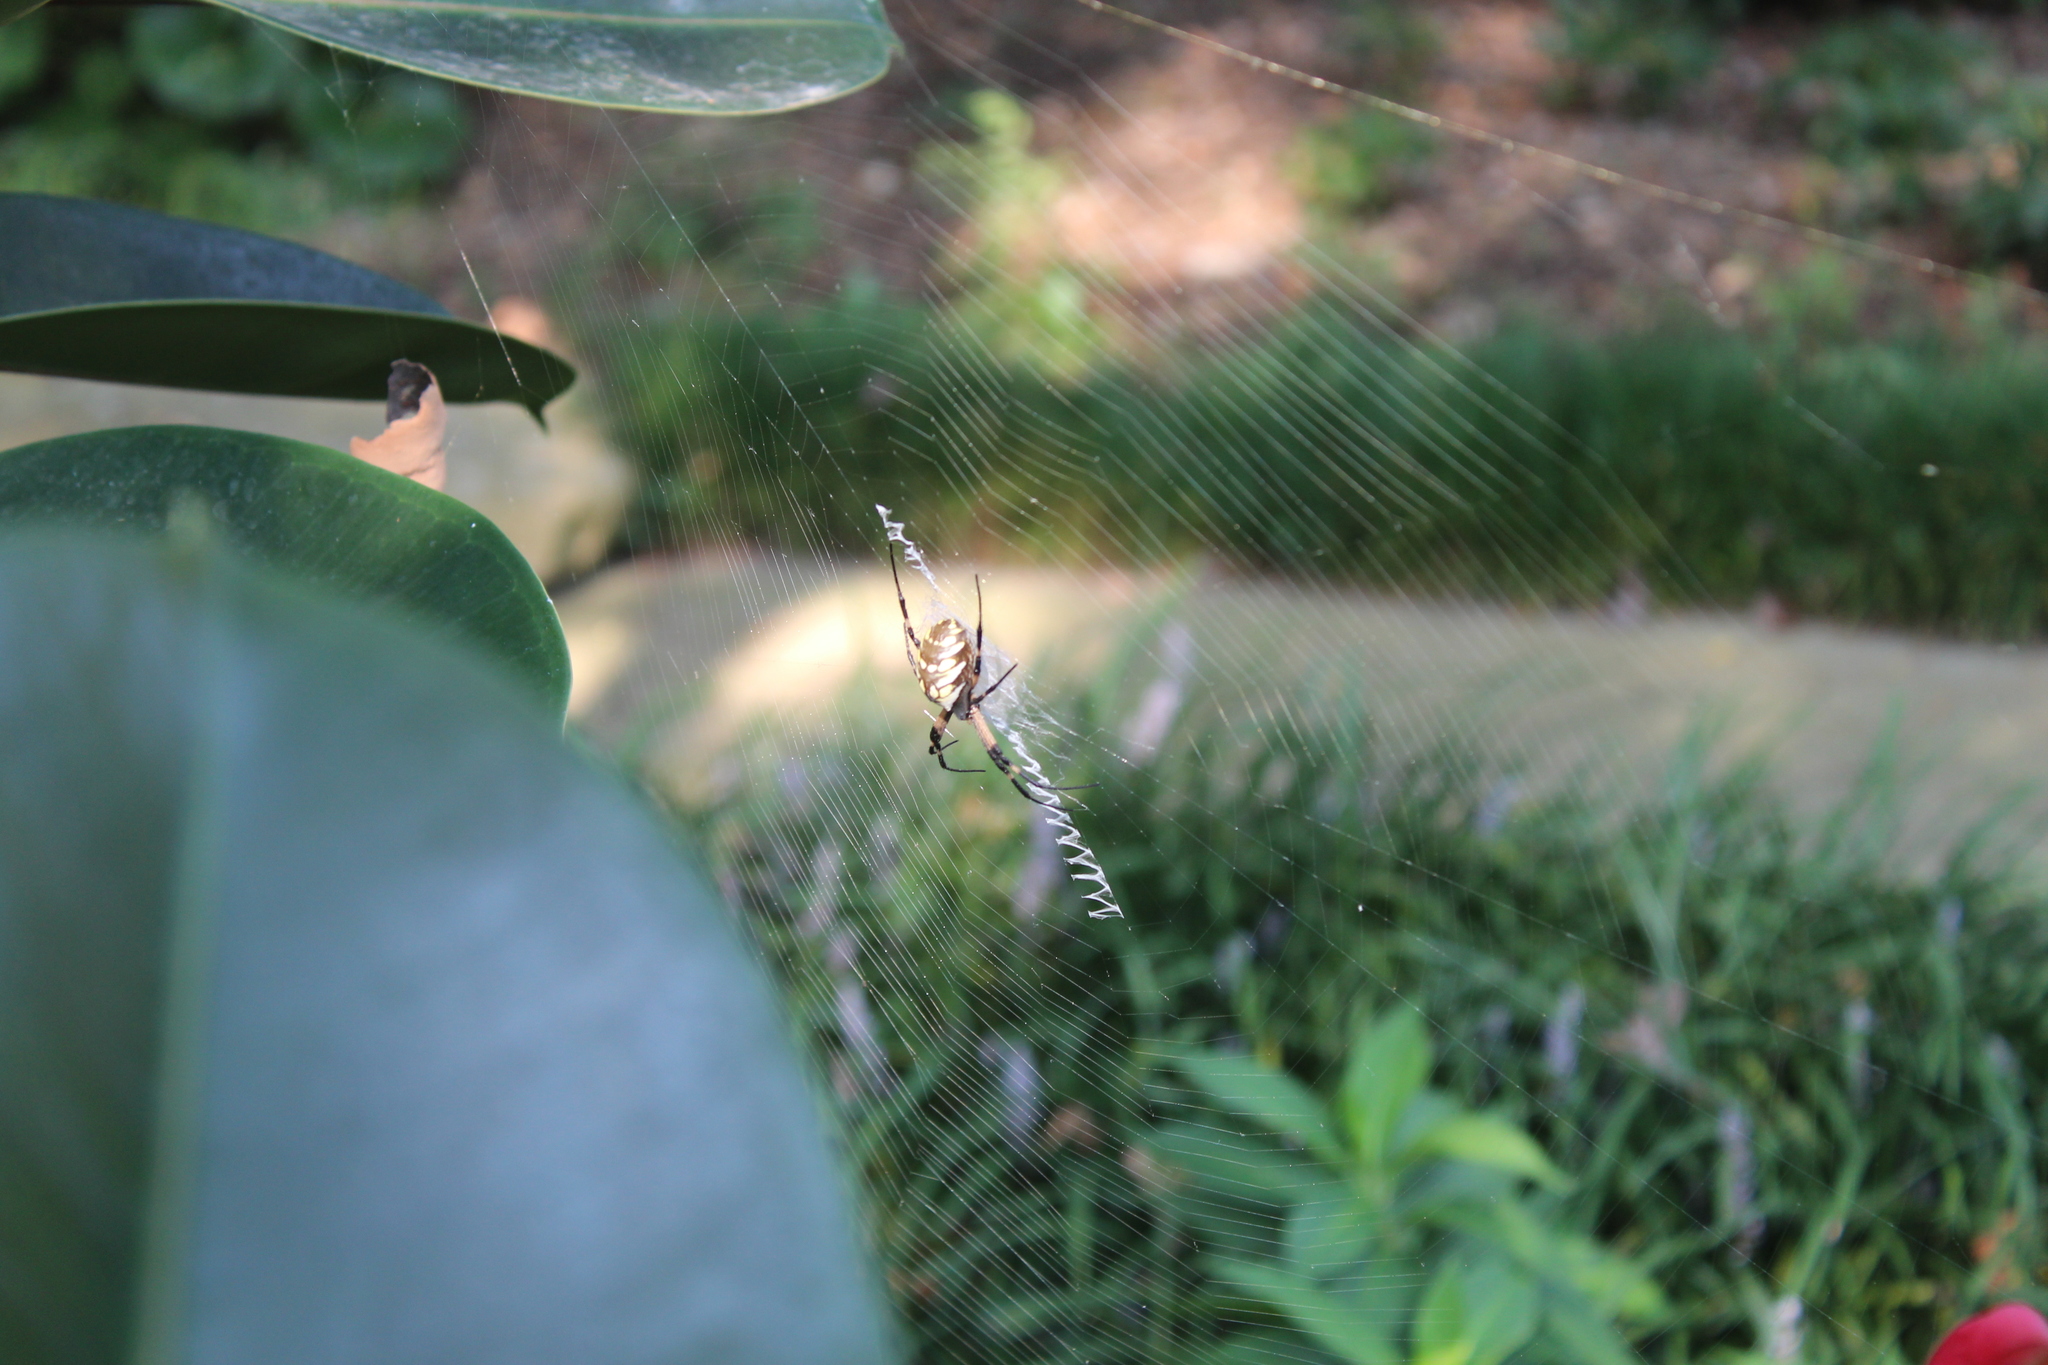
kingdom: Animalia
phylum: Arthropoda
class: Arachnida
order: Araneae
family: Araneidae
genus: Argiope
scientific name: Argiope aurantia
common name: Orb weavers
